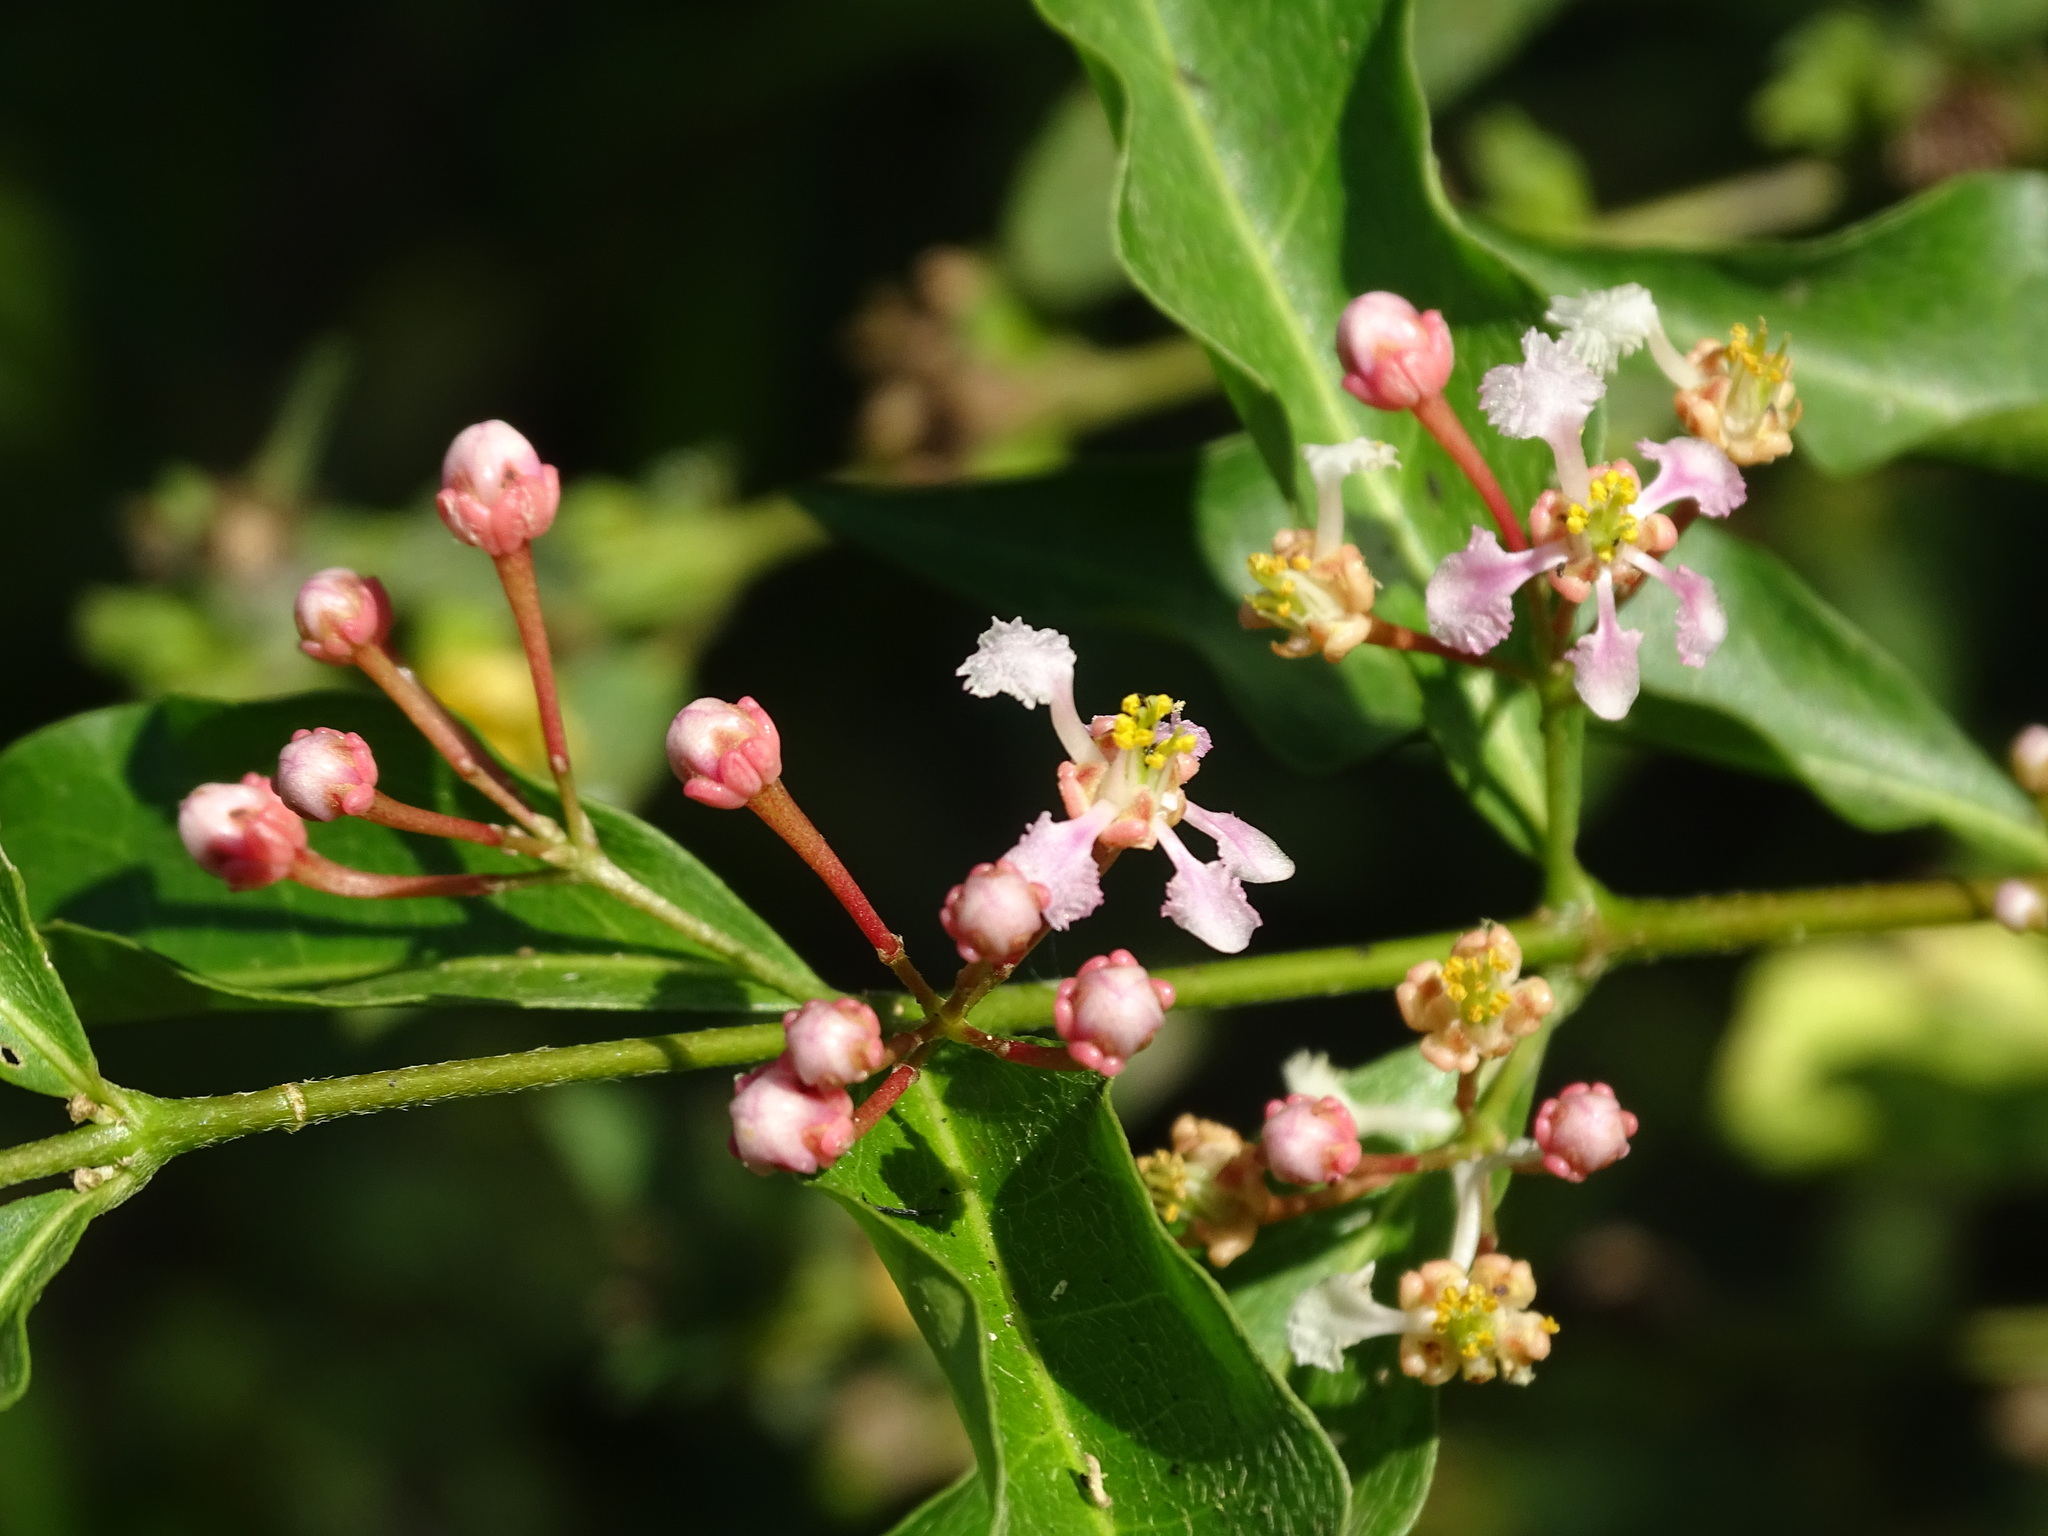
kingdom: Plantae
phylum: Tracheophyta
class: Magnoliopsida
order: Malpighiales
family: Malpighiaceae
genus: Malpighia
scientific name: Malpighia glabra
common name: Barbados cherry
